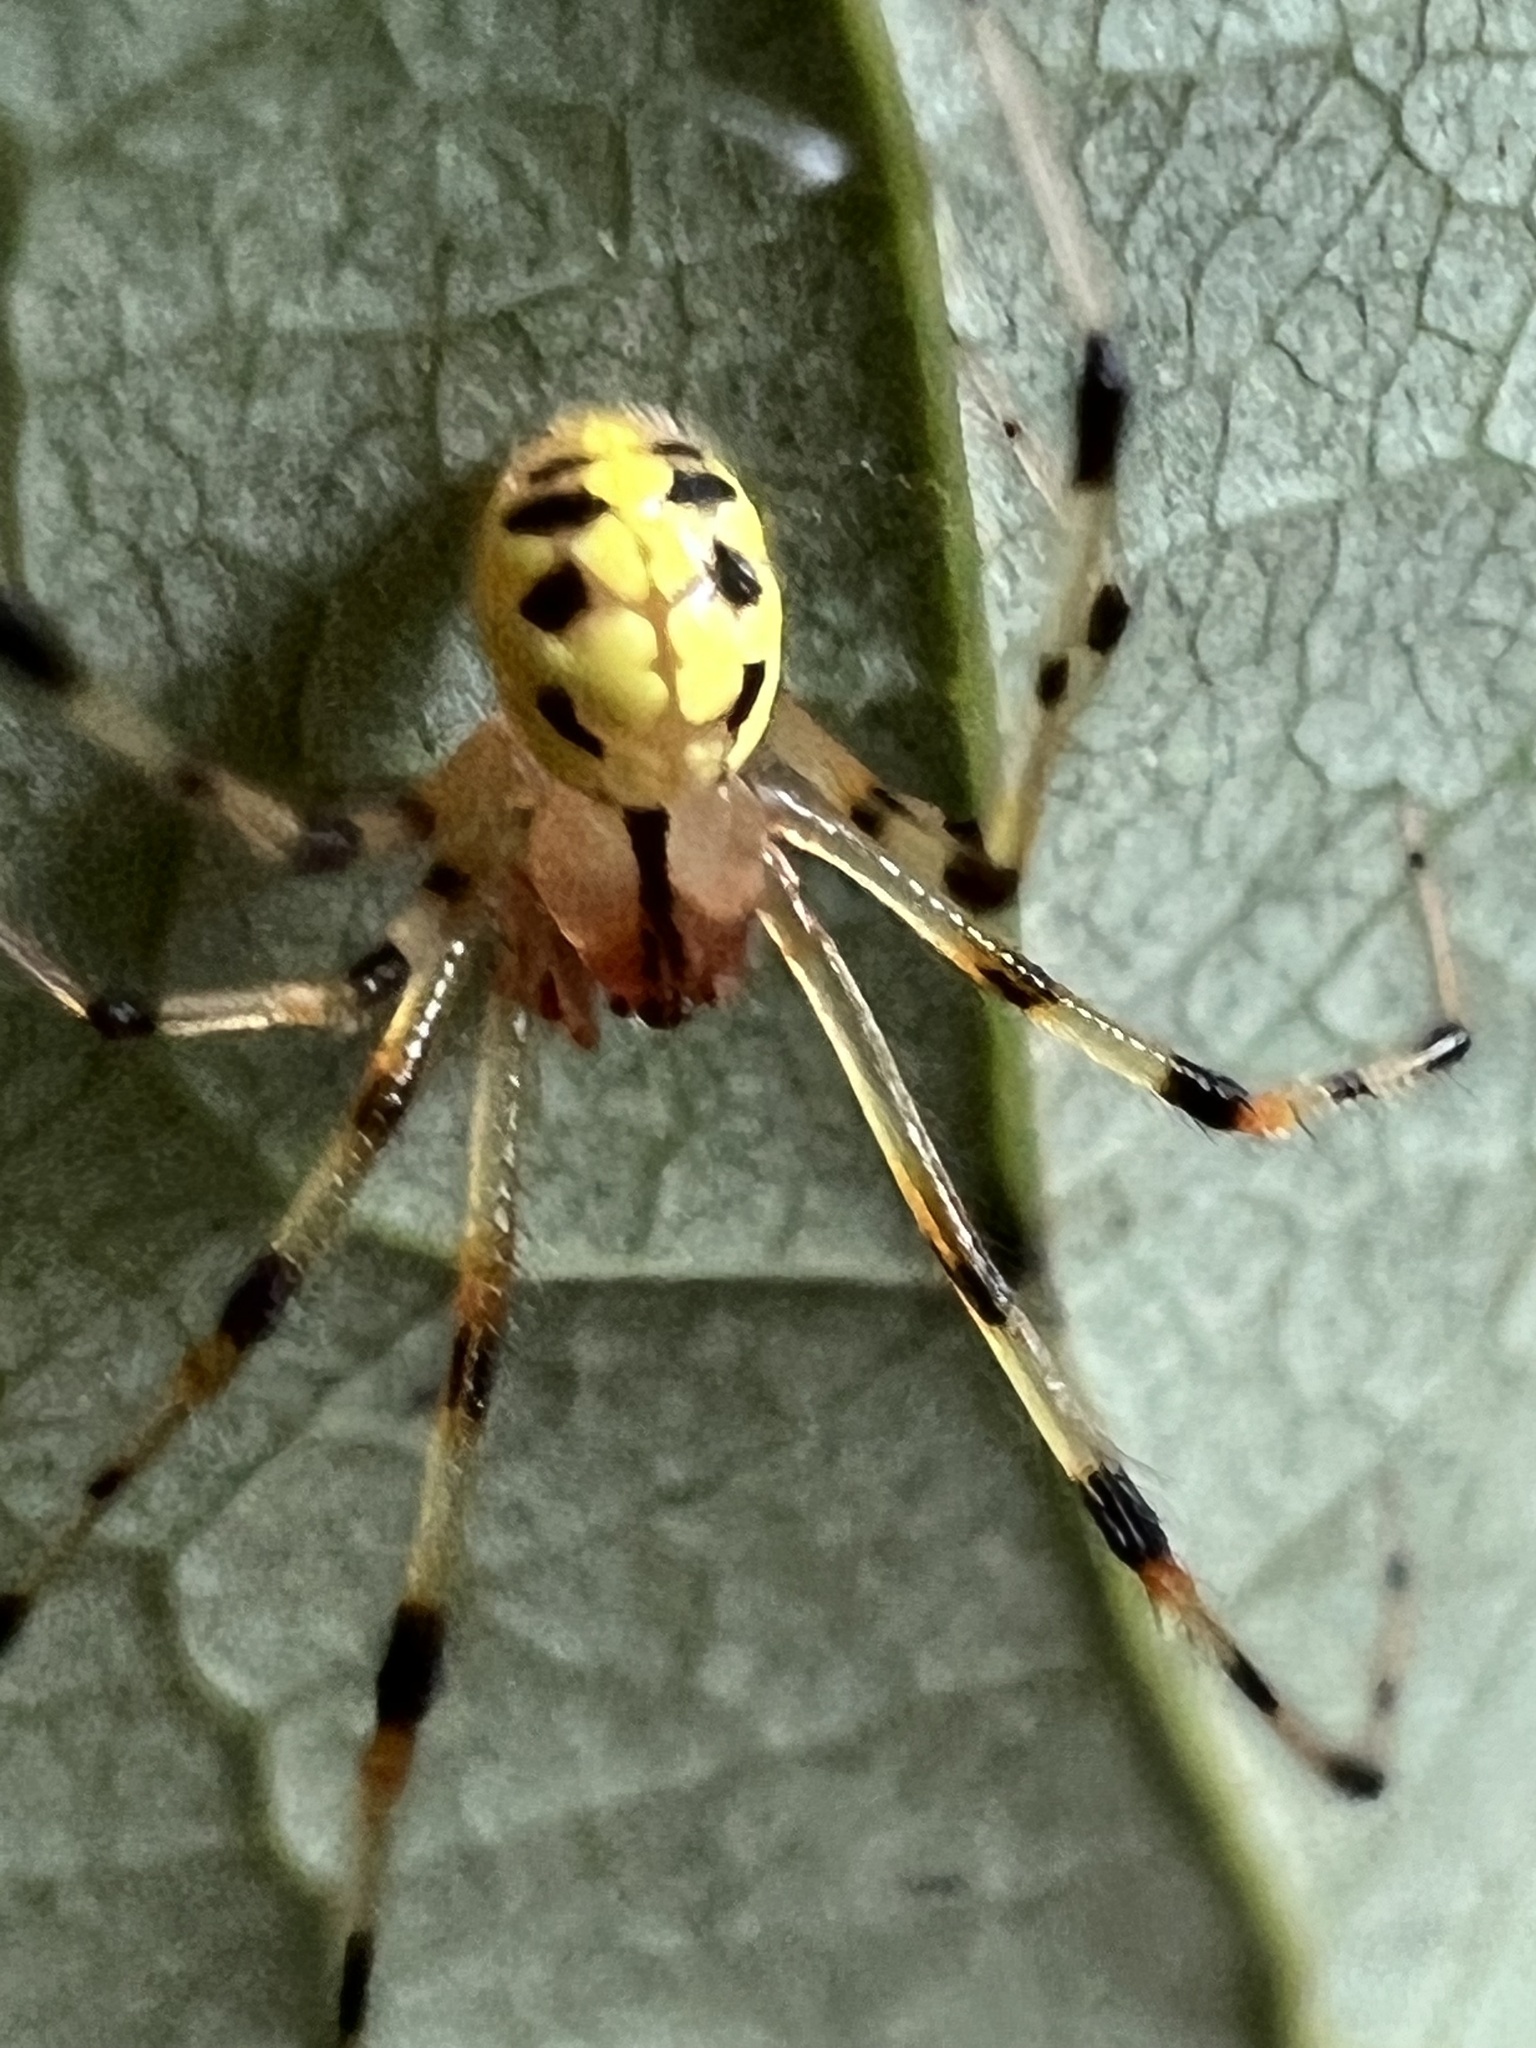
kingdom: Animalia
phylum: Arthropoda
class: Arachnida
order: Araneae
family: Theridiidae
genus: Phylloneta
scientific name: Phylloneta pictipes
